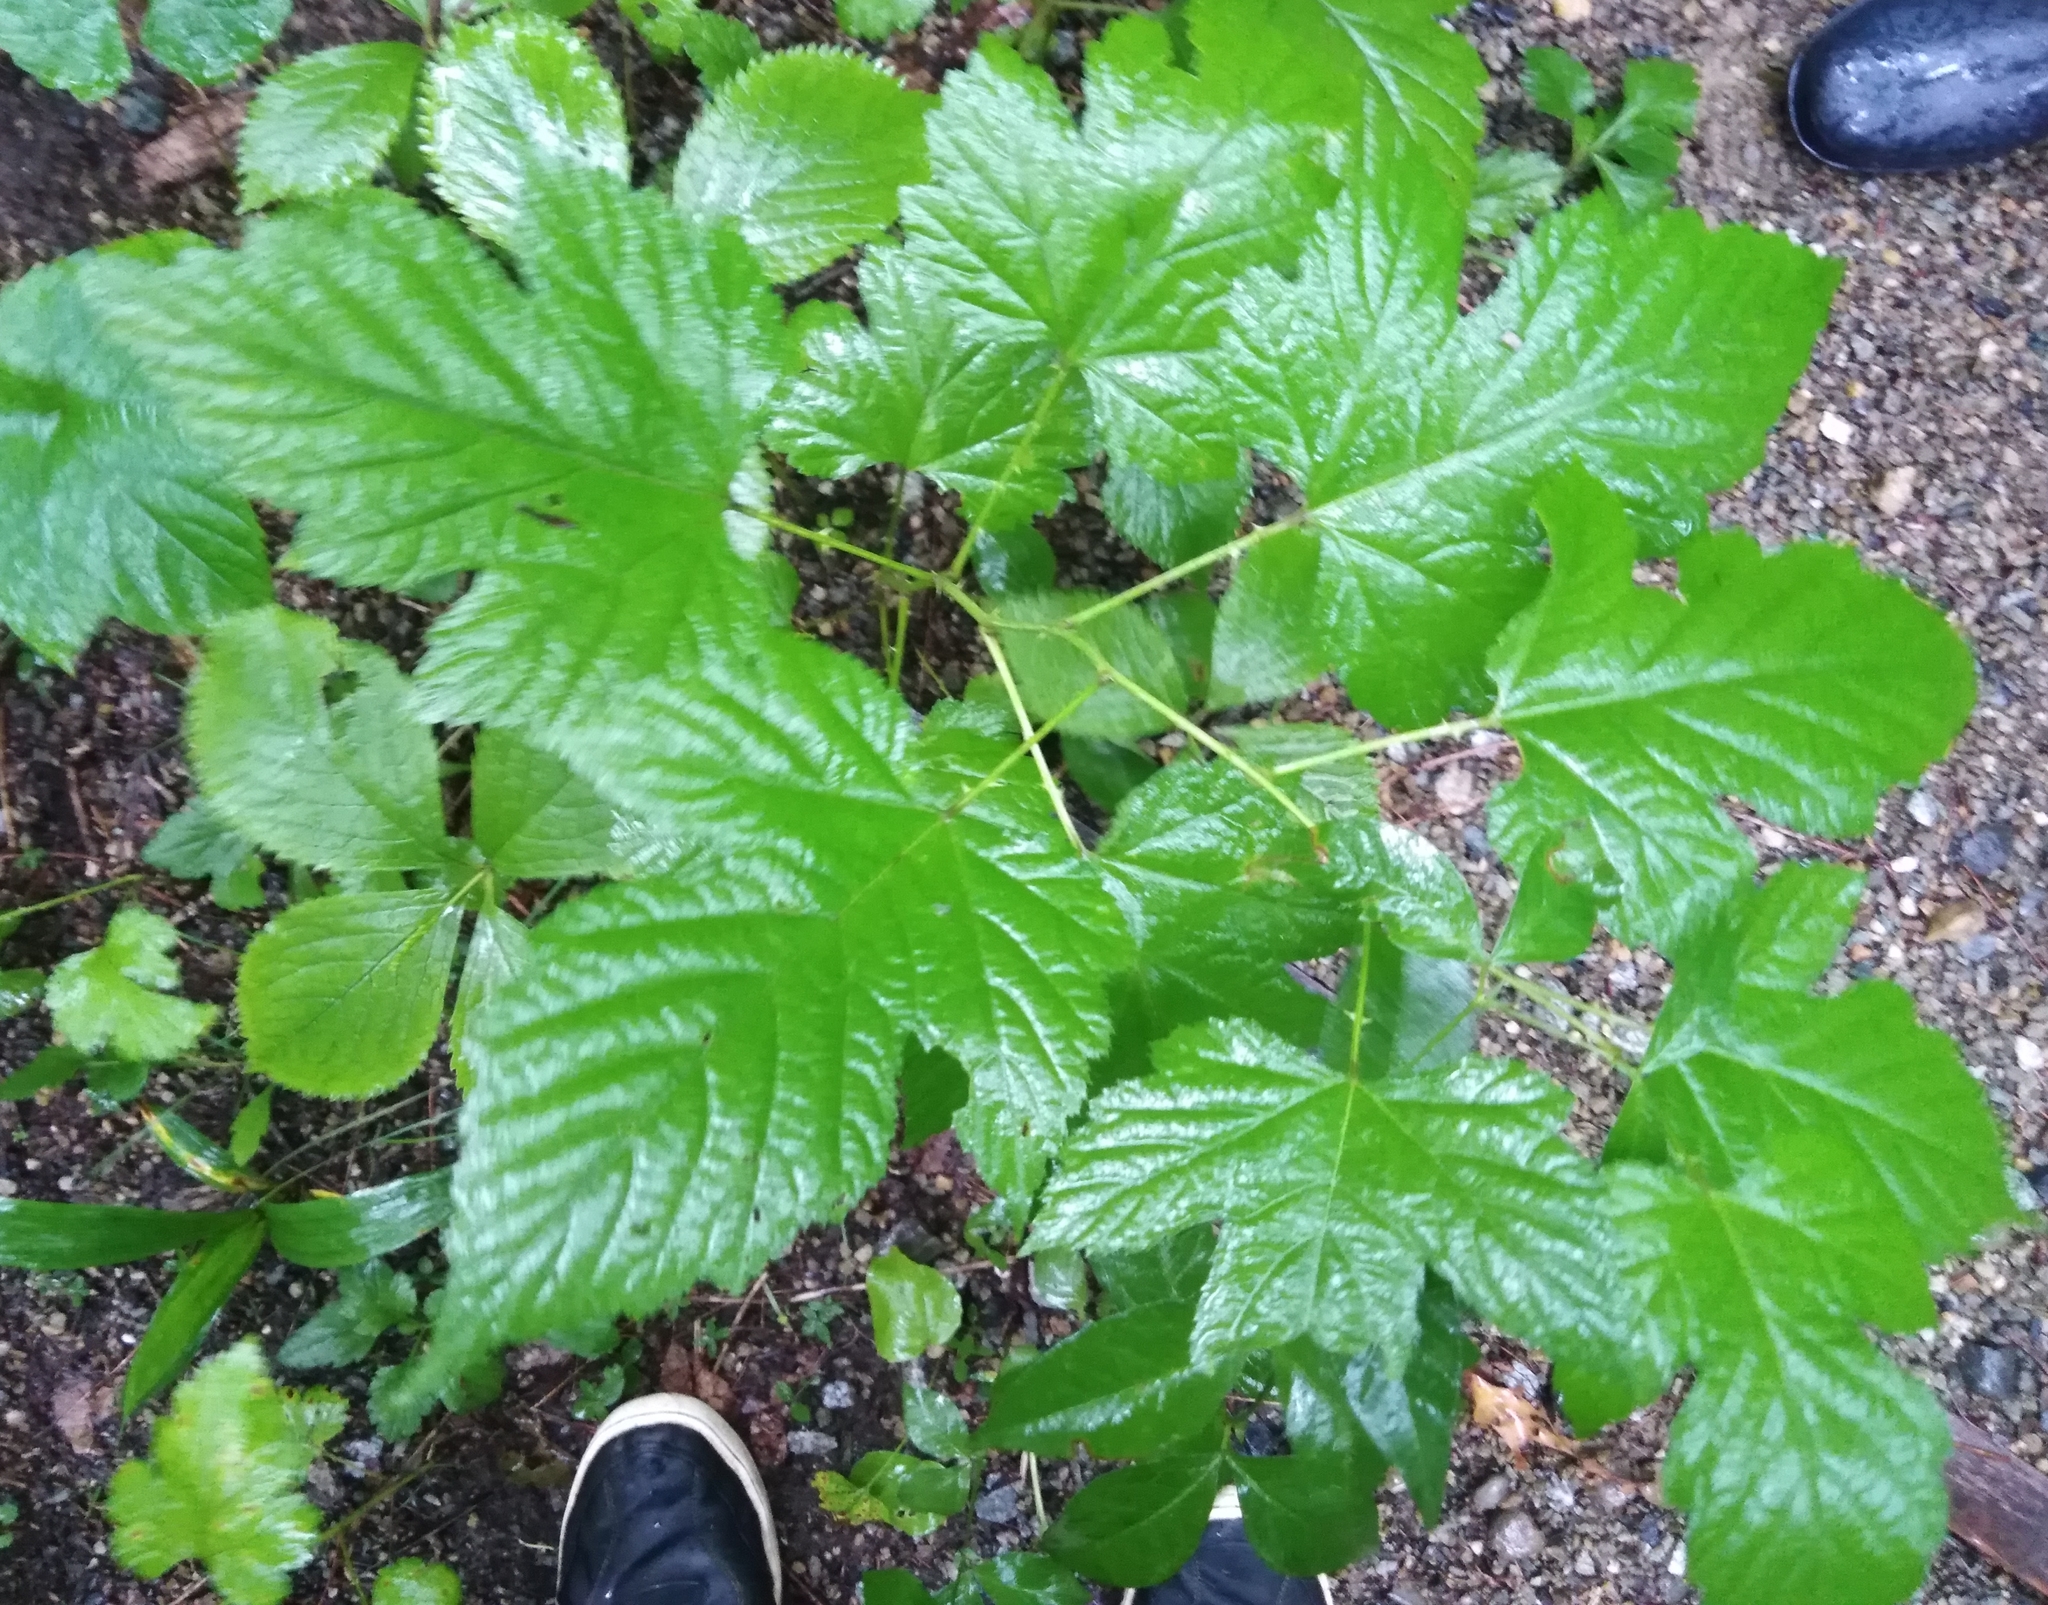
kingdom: Plantae
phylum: Tracheophyta
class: Magnoliopsida
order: Rosales
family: Rosaceae
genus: Rubus
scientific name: Rubus crataegifolius
